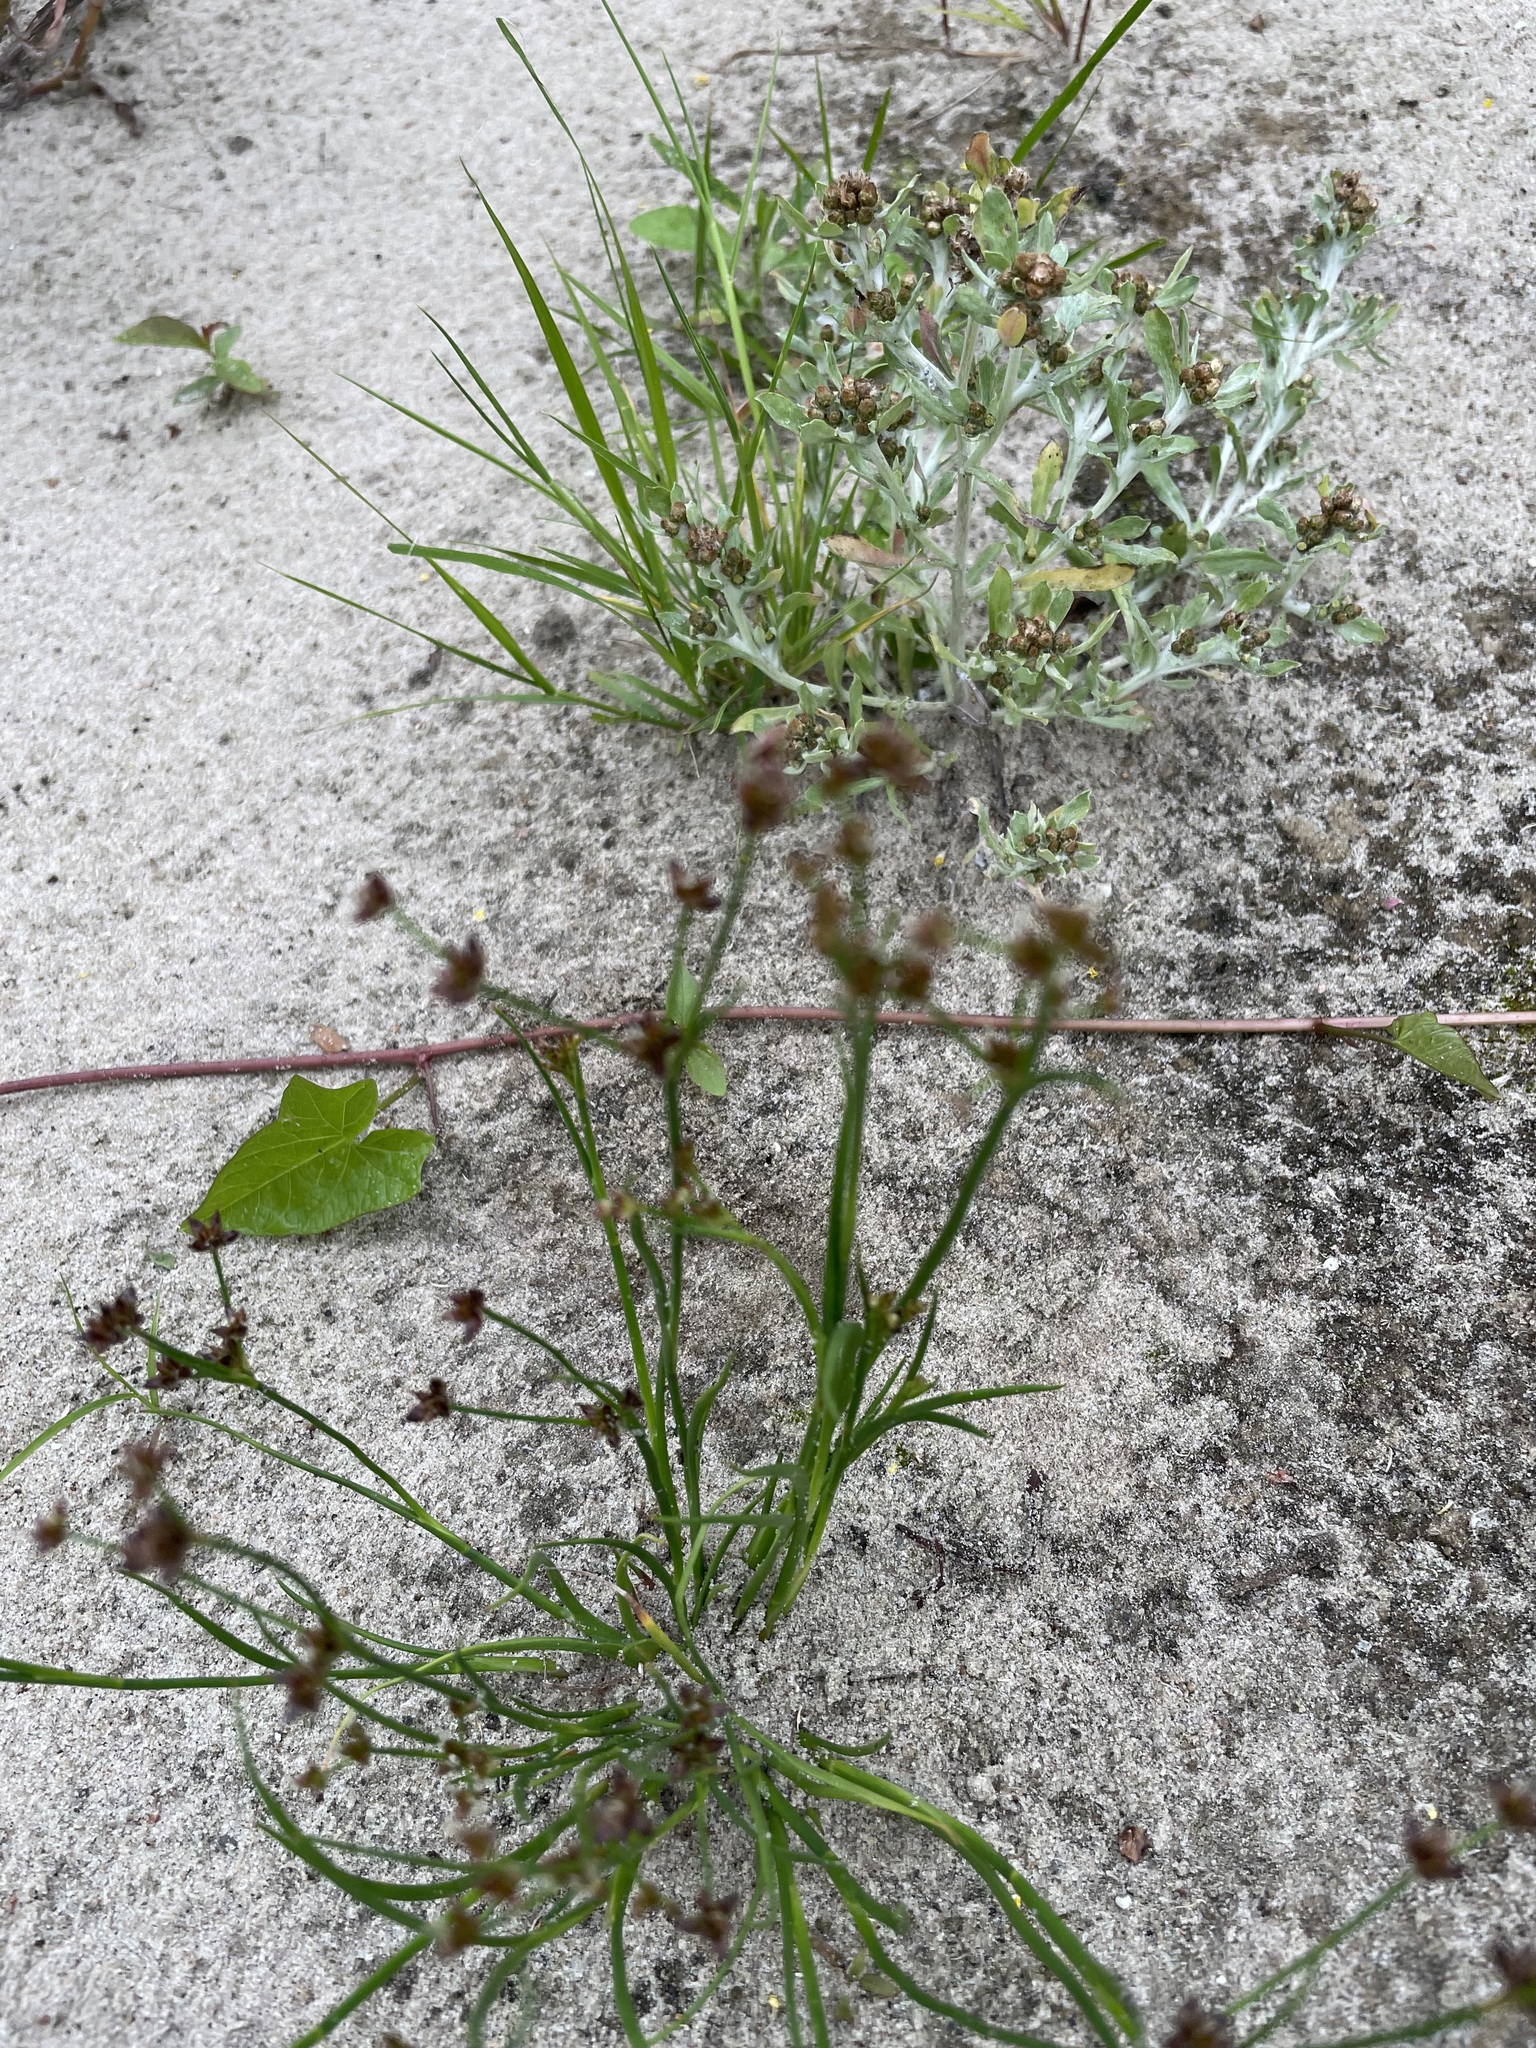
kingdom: Plantae
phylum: Tracheophyta
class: Liliopsida
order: Poales
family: Juncaceae
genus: Juncus
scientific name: Juncus articulatus
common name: Jointed rush
